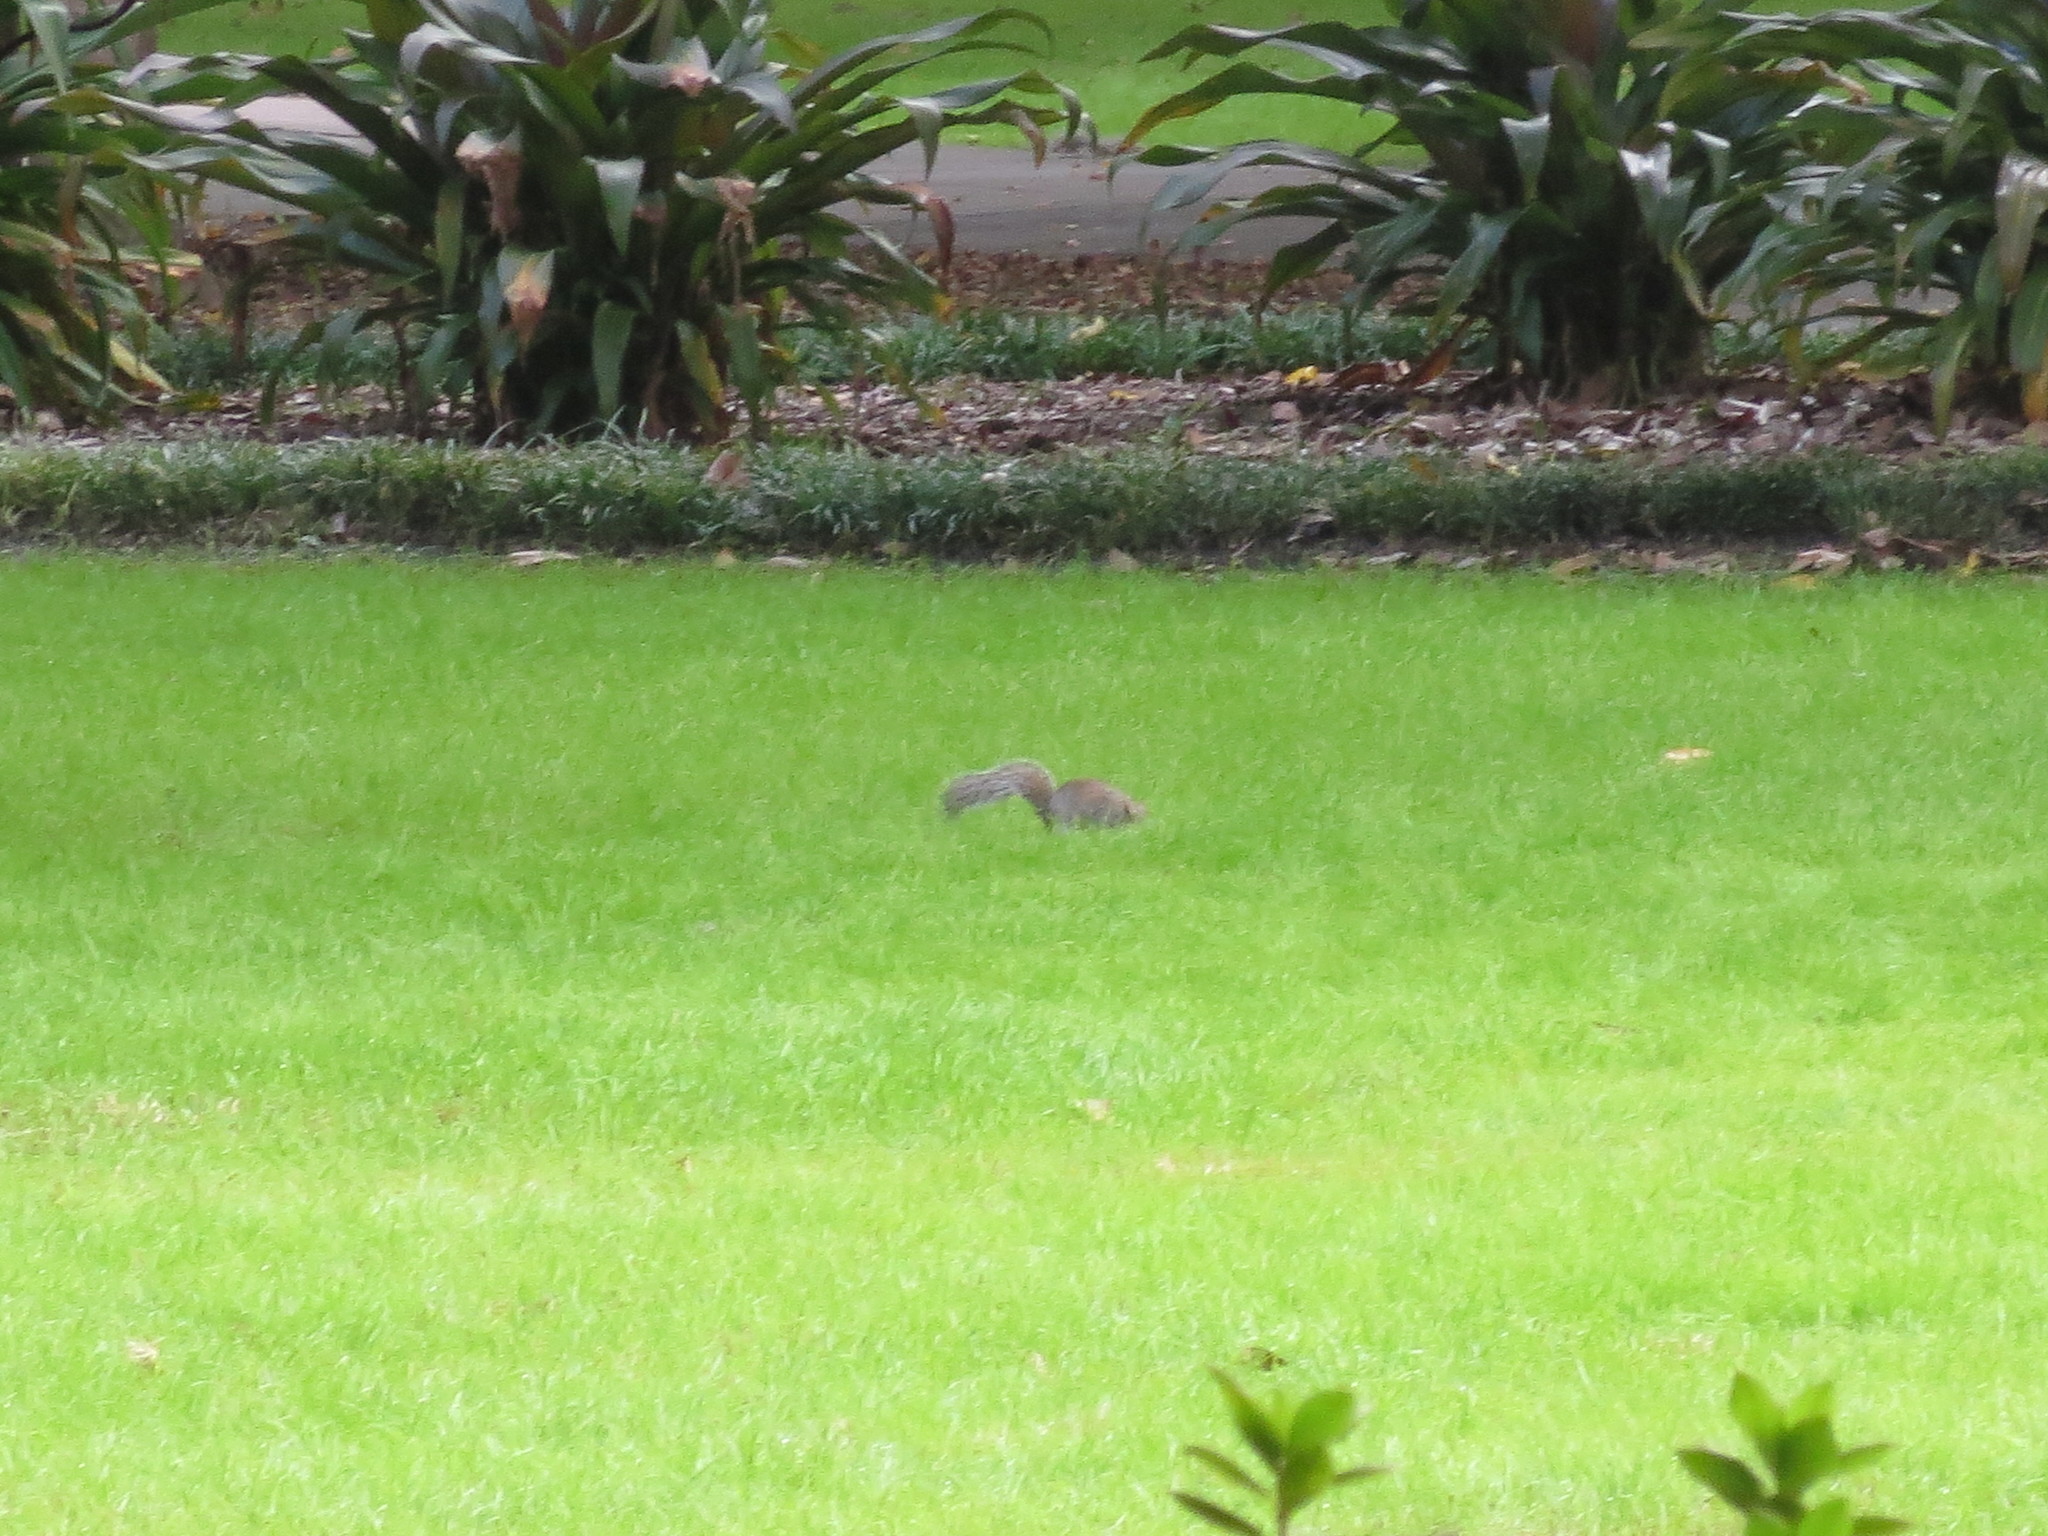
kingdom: Animalia
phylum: Chordata
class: Mammalia
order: Rodentia
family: Sciuridae
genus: Sciurus
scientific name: Sciurus carolinensis
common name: Eastern gray squirrel
